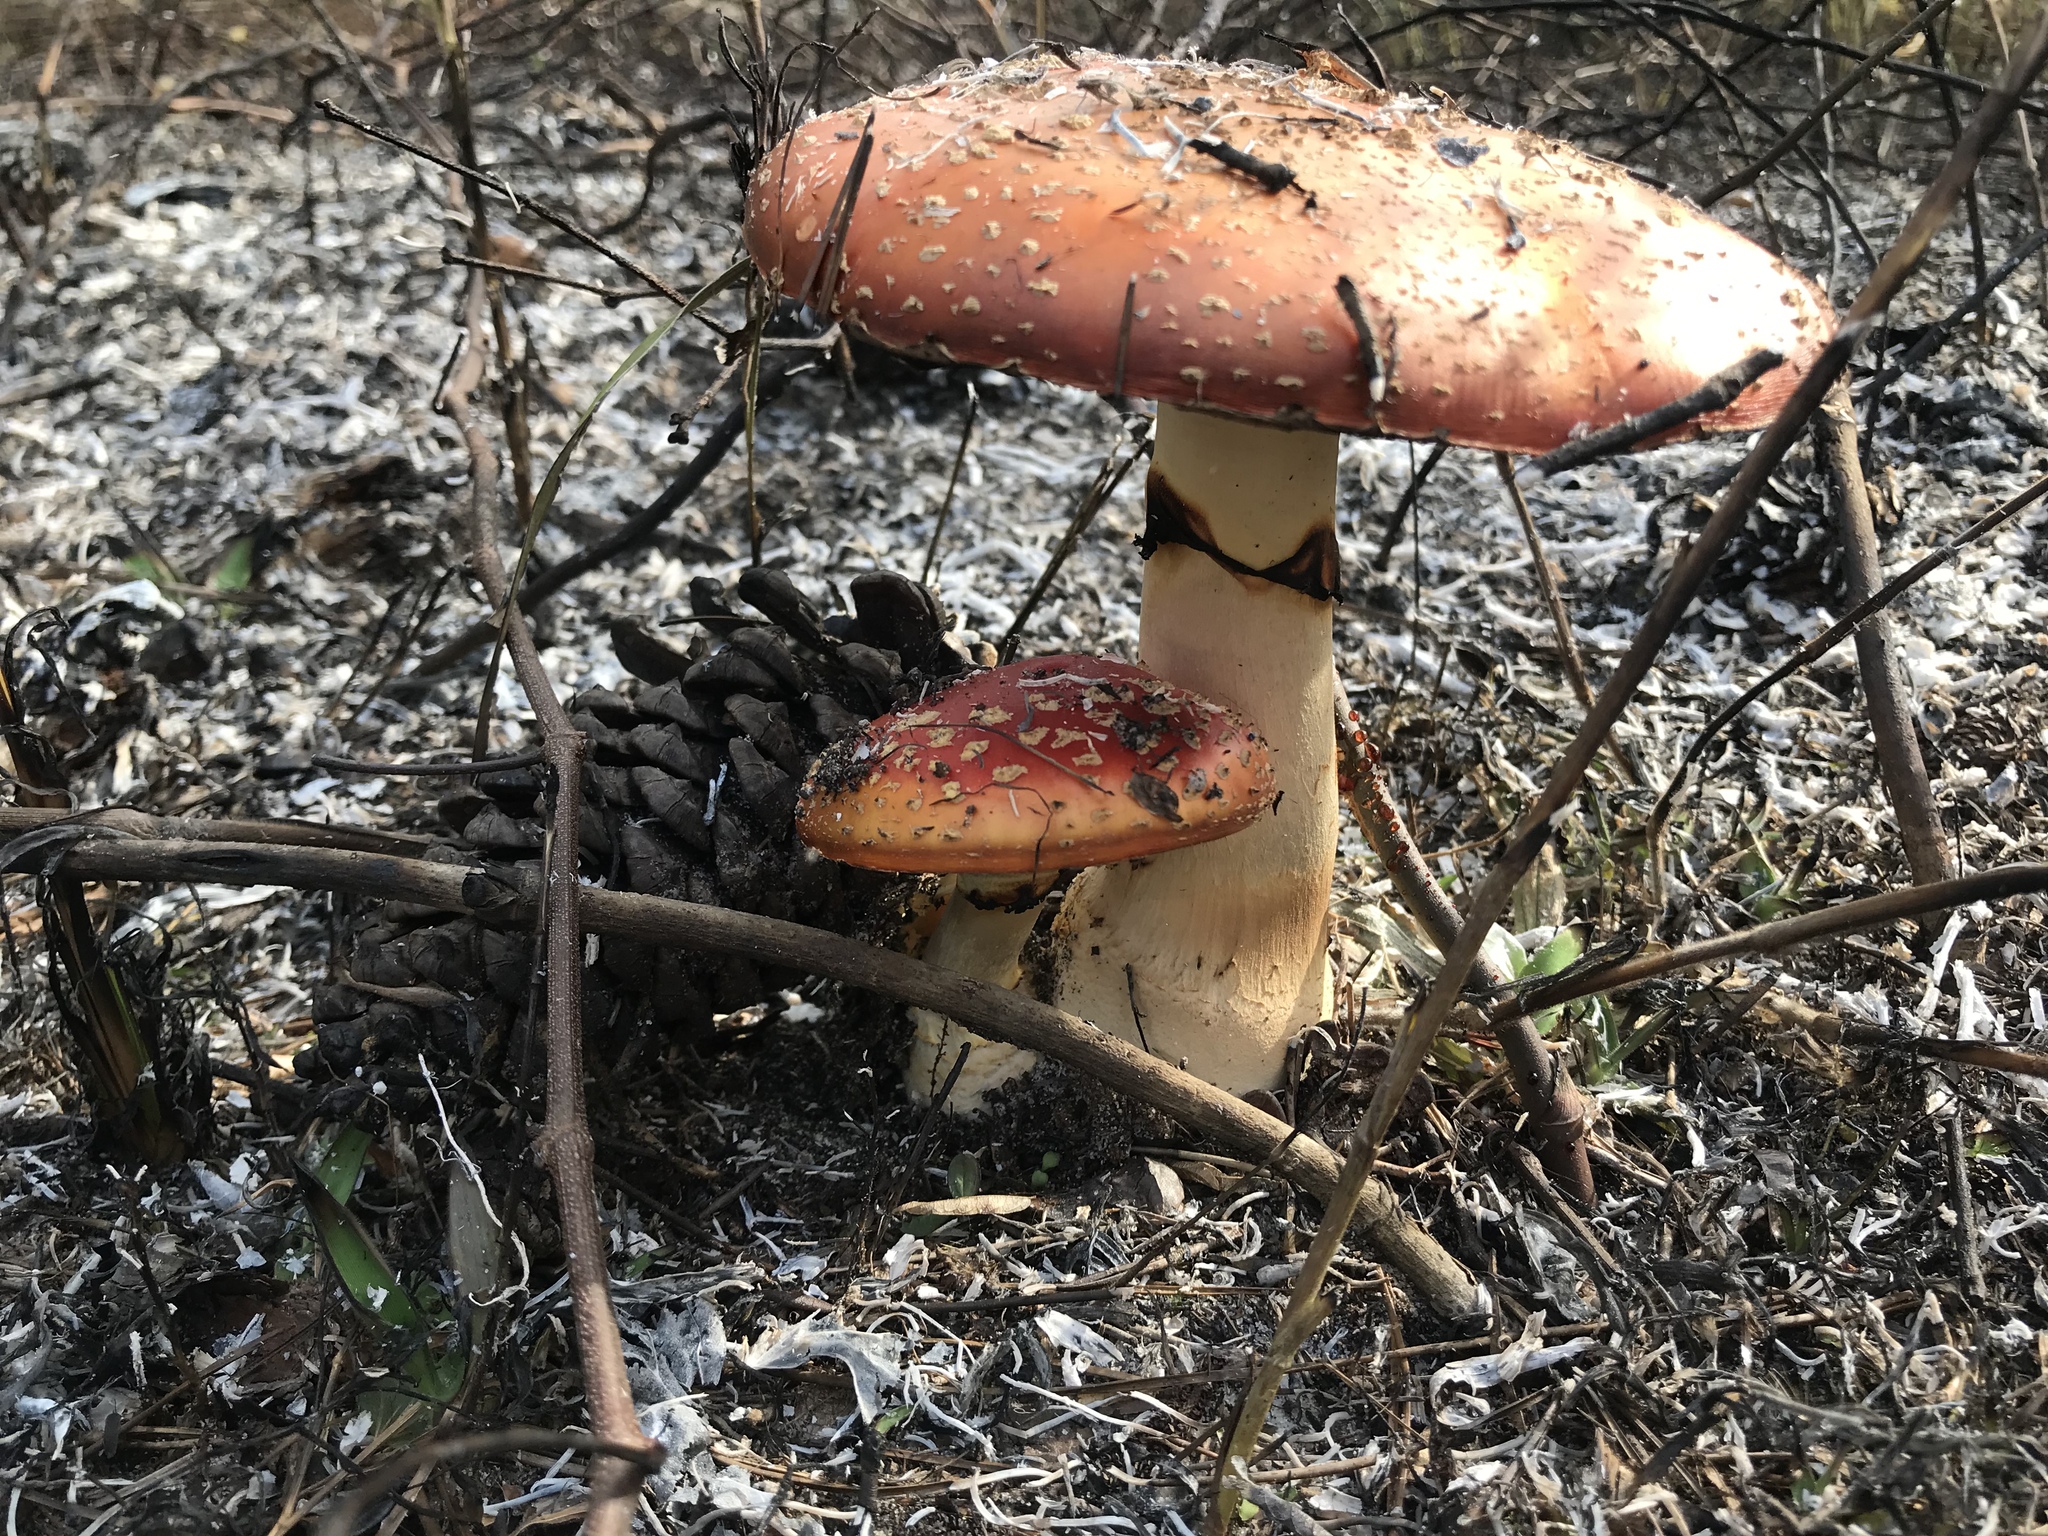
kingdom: Fungi
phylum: Basidiomycota
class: Agaricomycetes
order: Agaricales
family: Amanitaceae
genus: Amanita
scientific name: Amanita persicina
